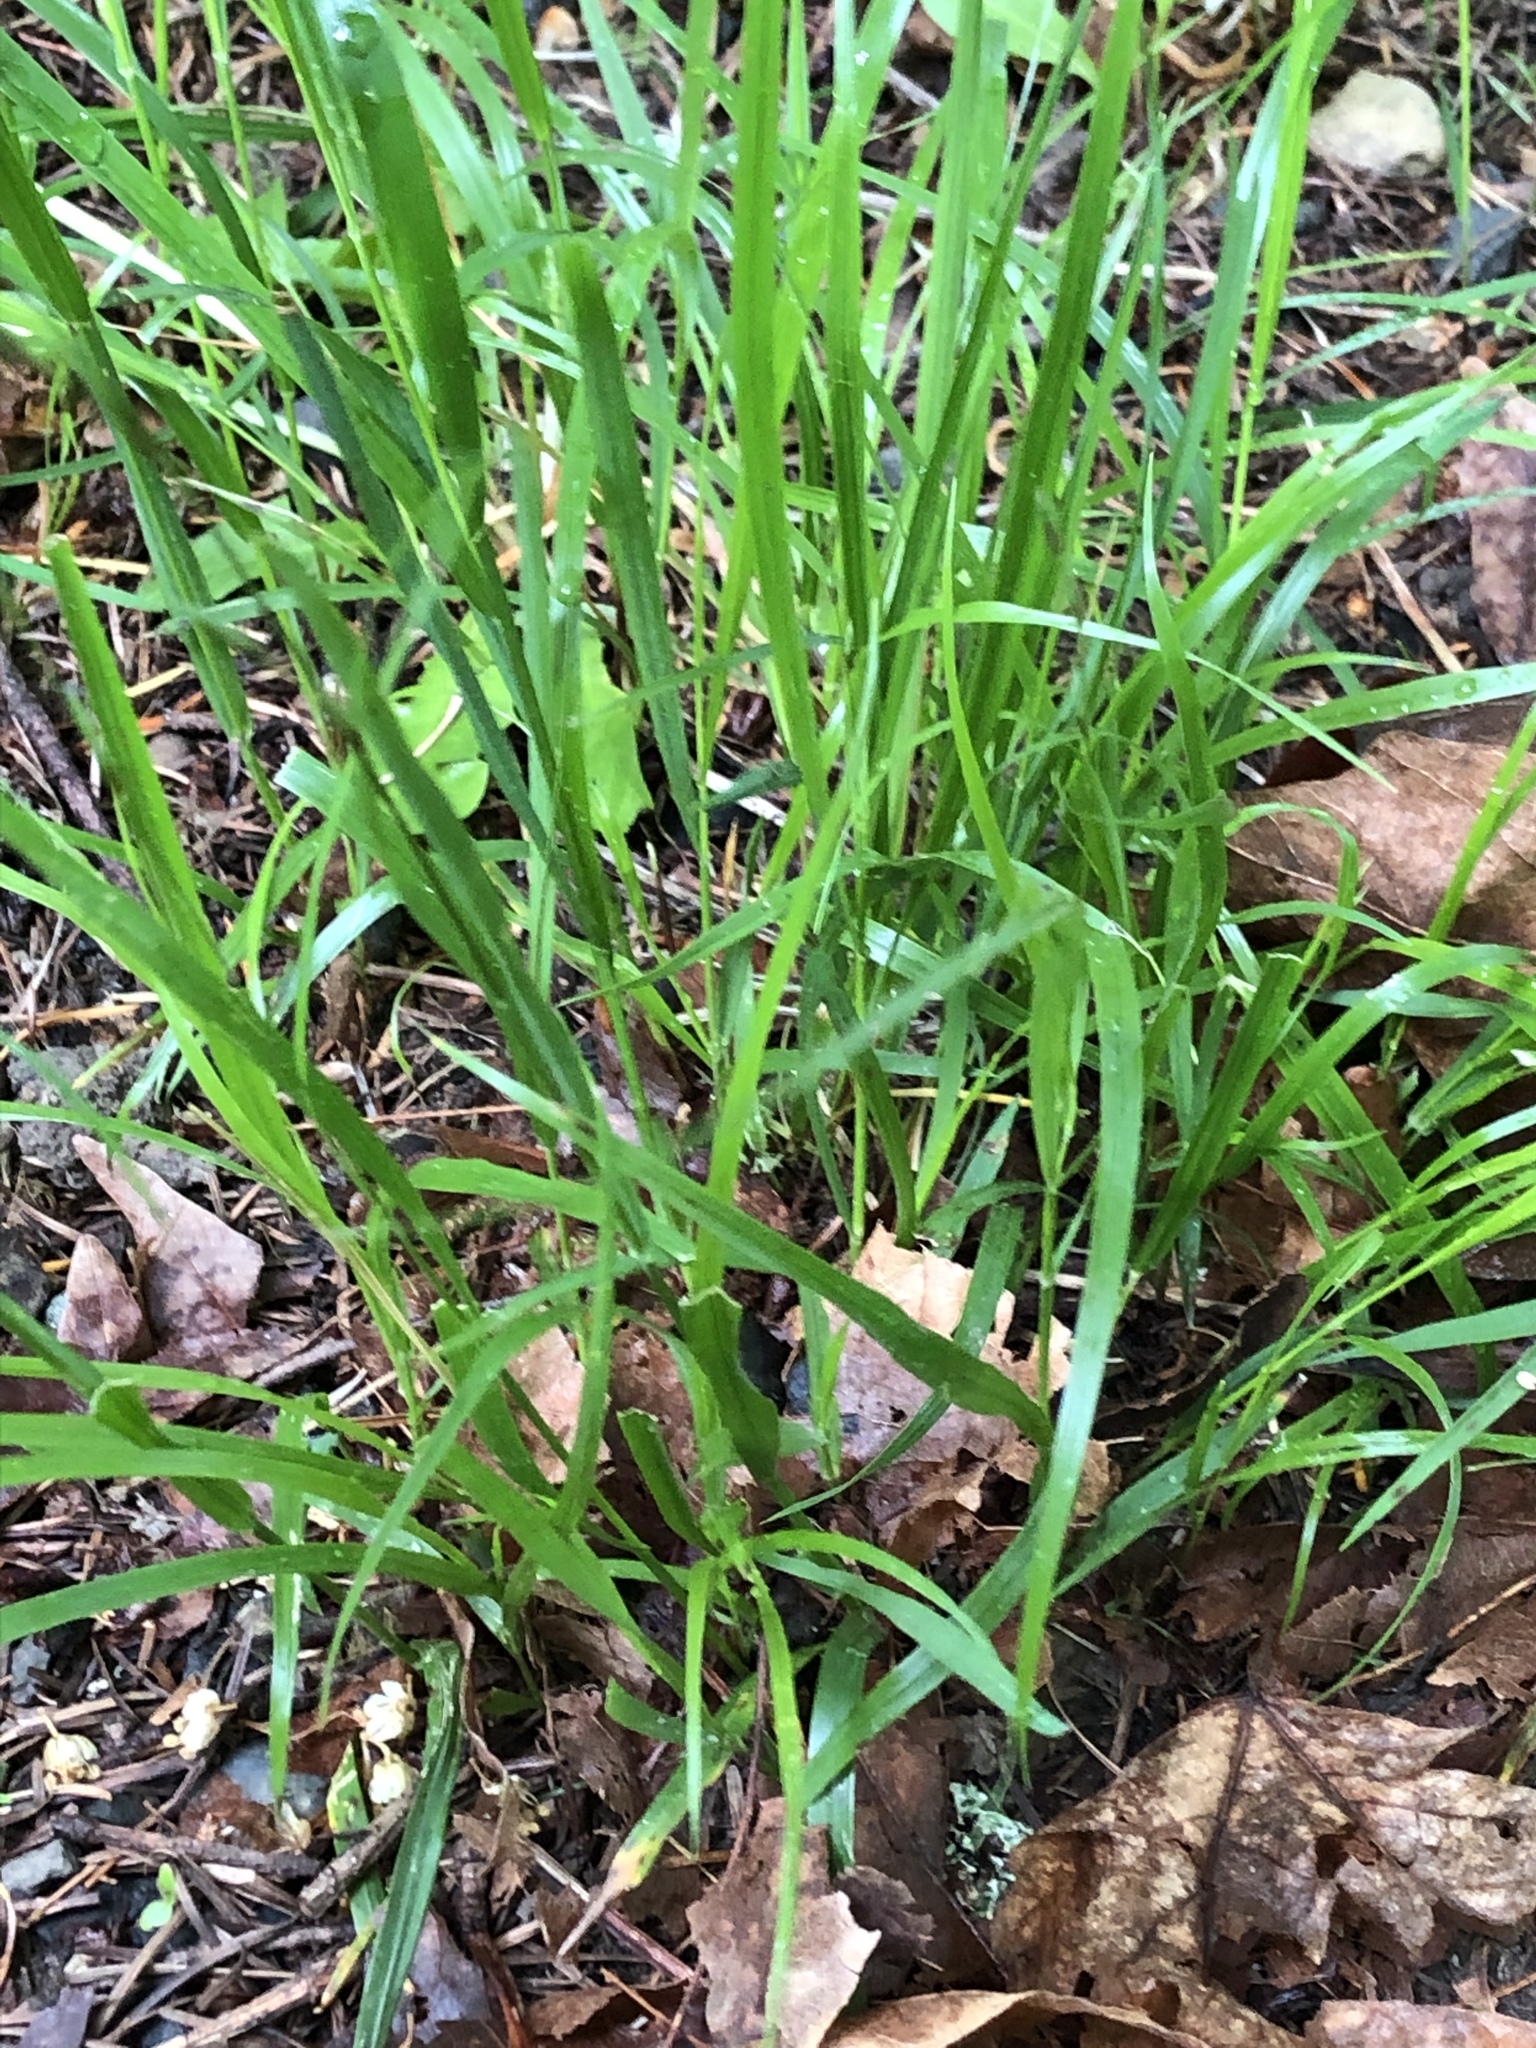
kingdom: Plantae
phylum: Tracheophyta
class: Liliopsida
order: Poales
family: Poaceae
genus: Melica
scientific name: Melica subulata
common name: Tapered oniongrass
